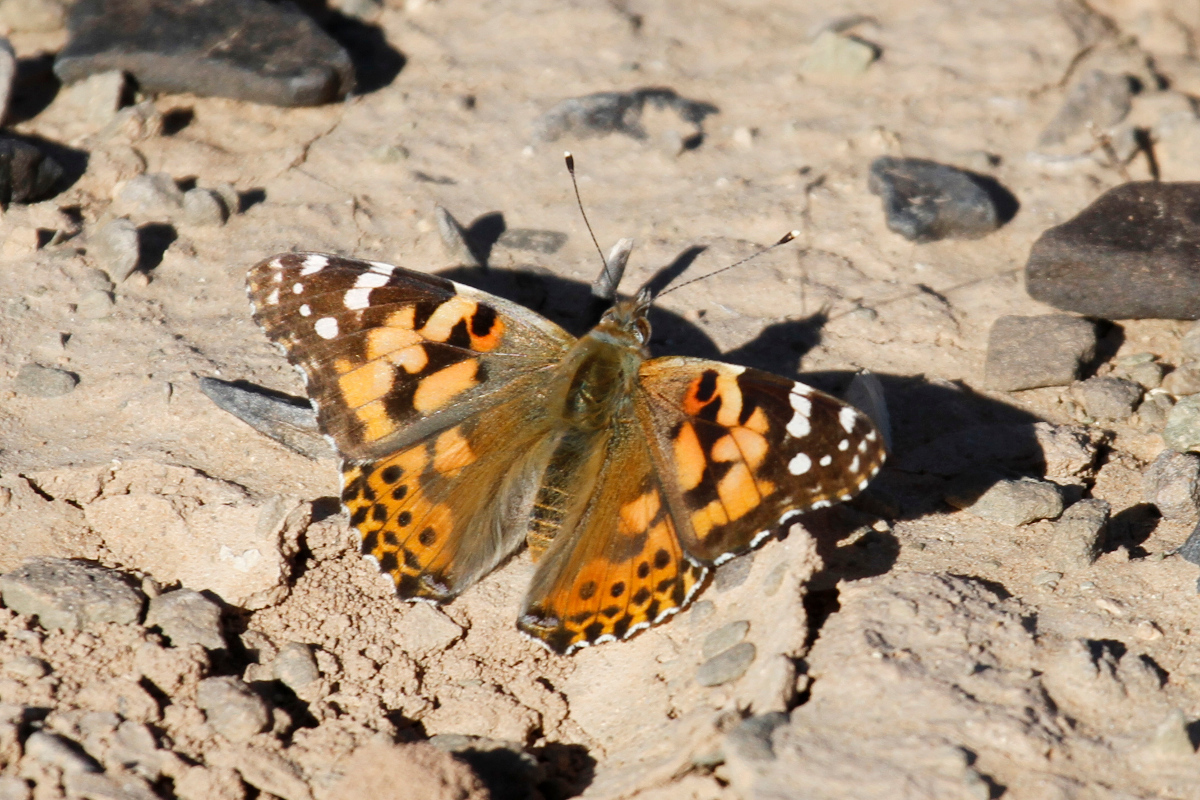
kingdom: Animalia
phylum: Arthropoda
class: Insecta
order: Lepidoptera
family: Nymphalidae
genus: Vanessa
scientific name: Vanessa cardui
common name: Painted lady
